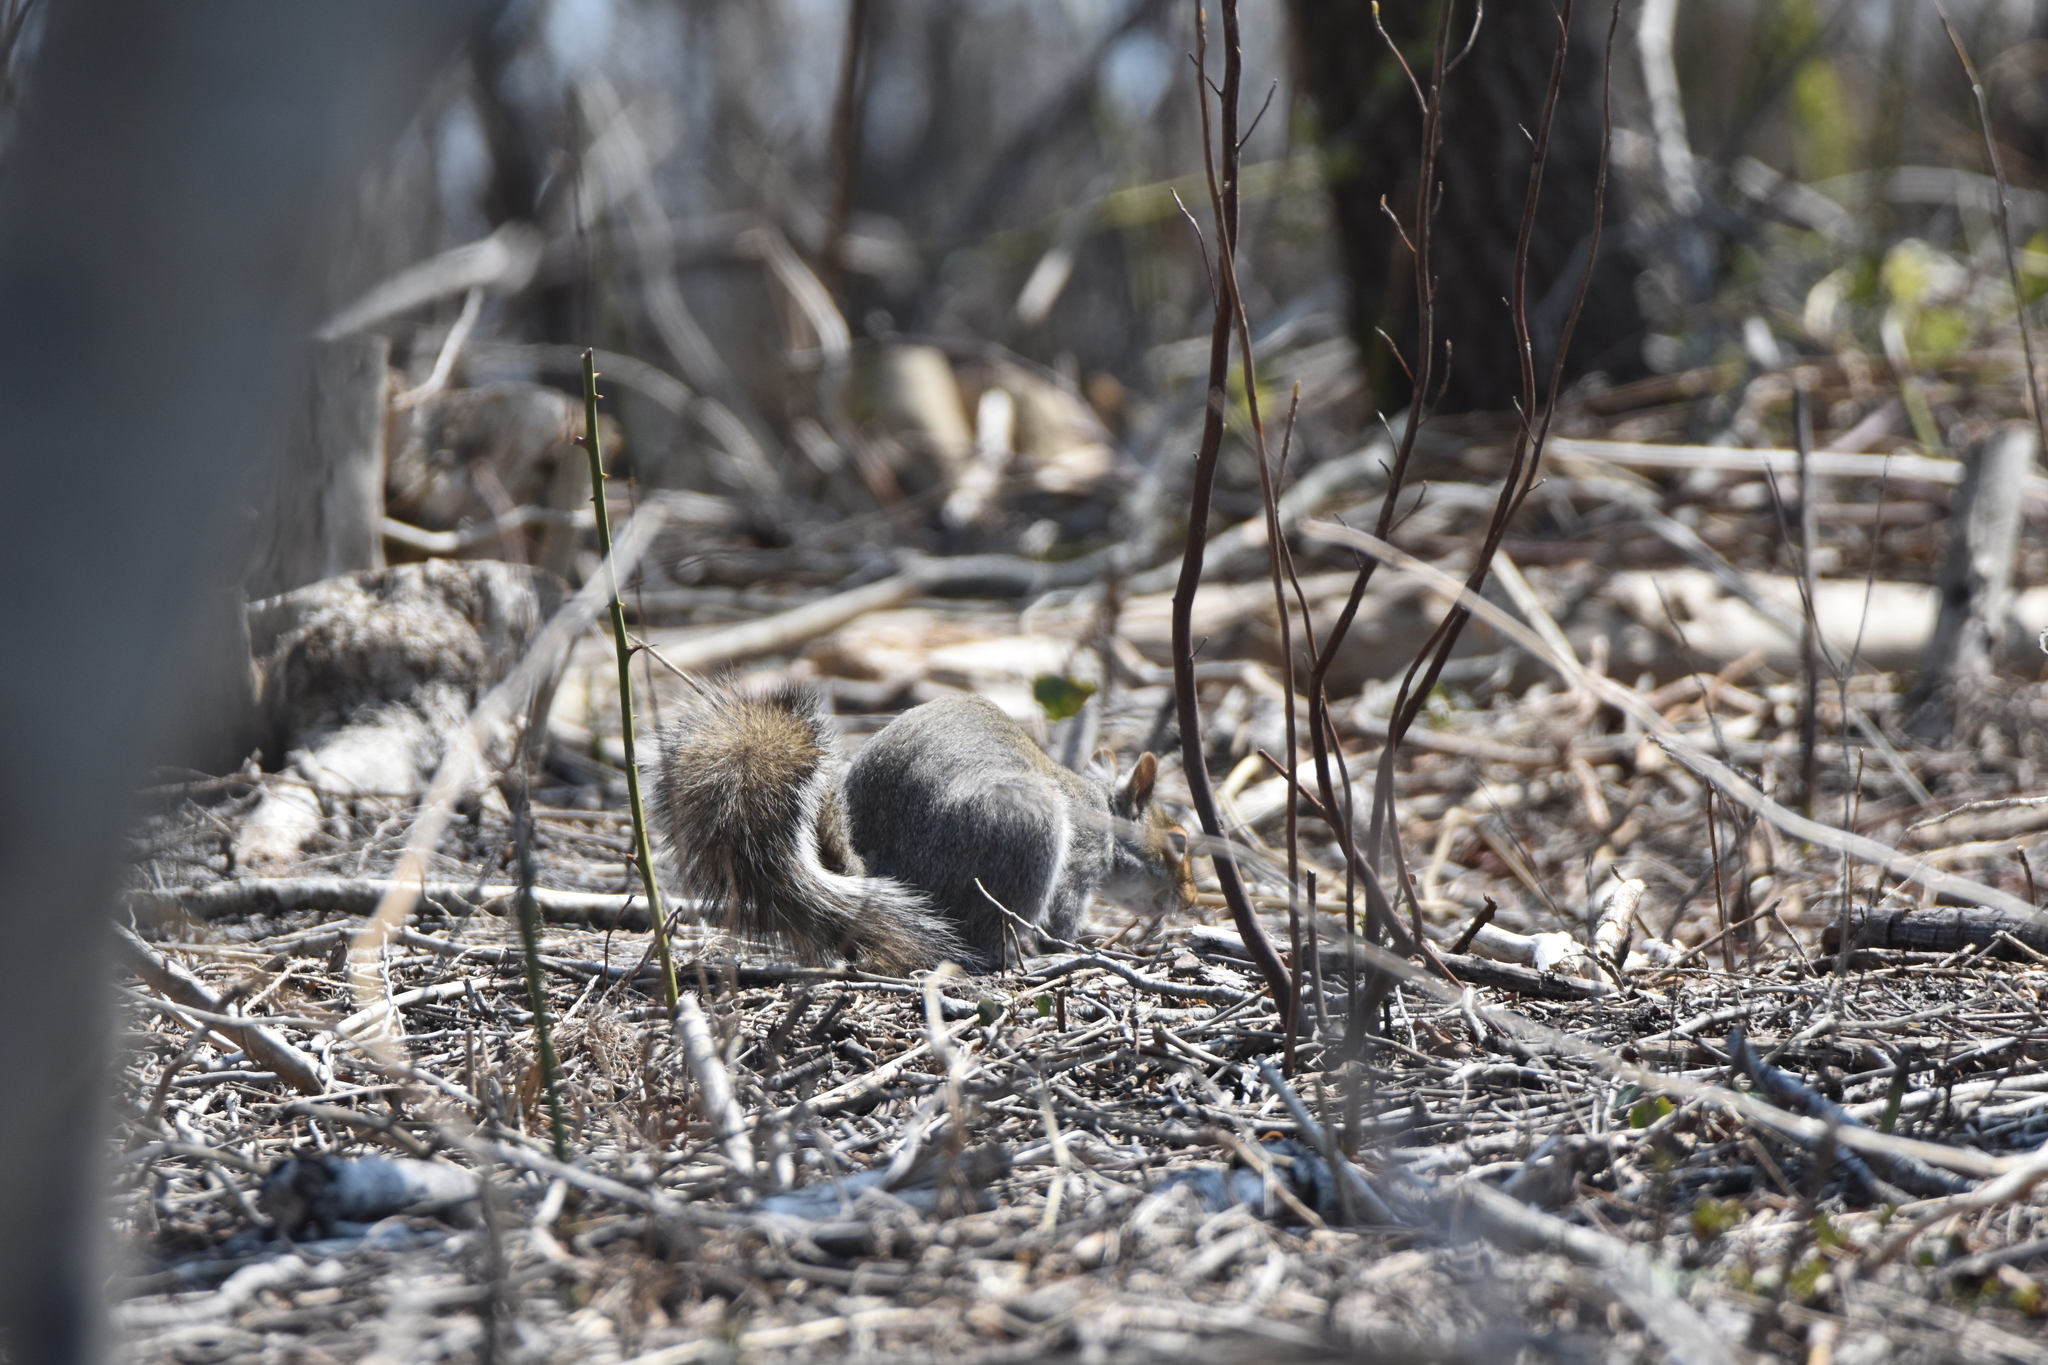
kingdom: Animalia
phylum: Chordata
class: Mammalia
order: Rodentia
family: Sciuridae
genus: Sciurus
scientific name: Sciurus carolinensis
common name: Eastern gray squirrel
